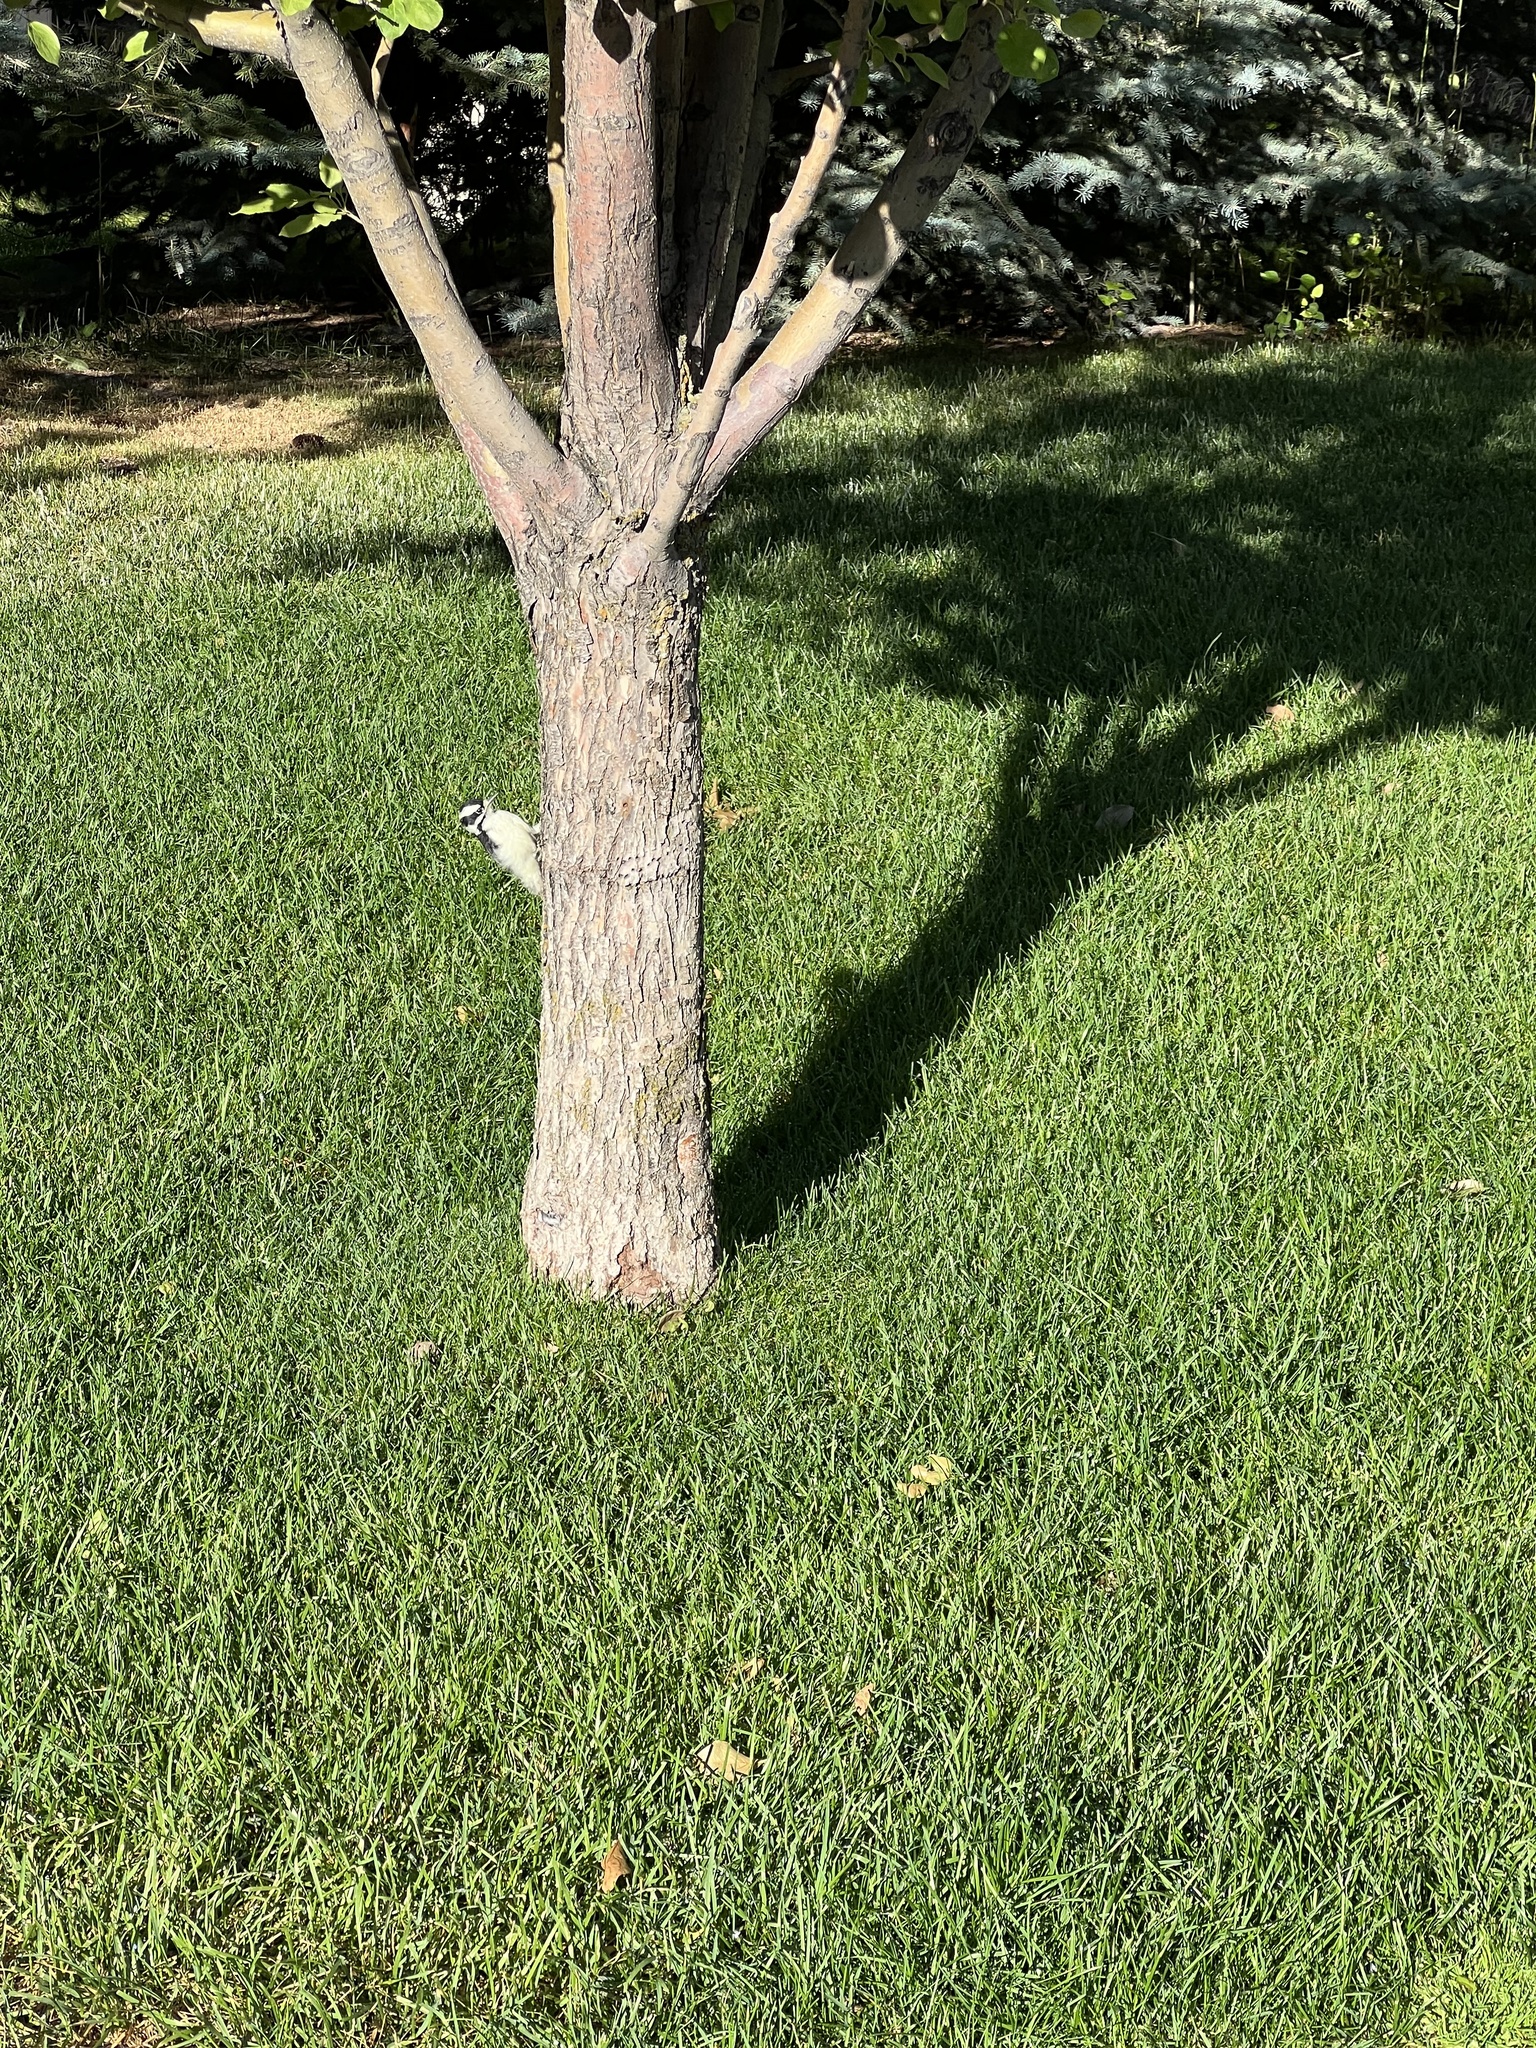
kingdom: Animalia
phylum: Chordata
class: Aves
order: Piciformes
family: Picidae
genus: Dryobates
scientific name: Dryobates pubescens
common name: Downy woodpecker
